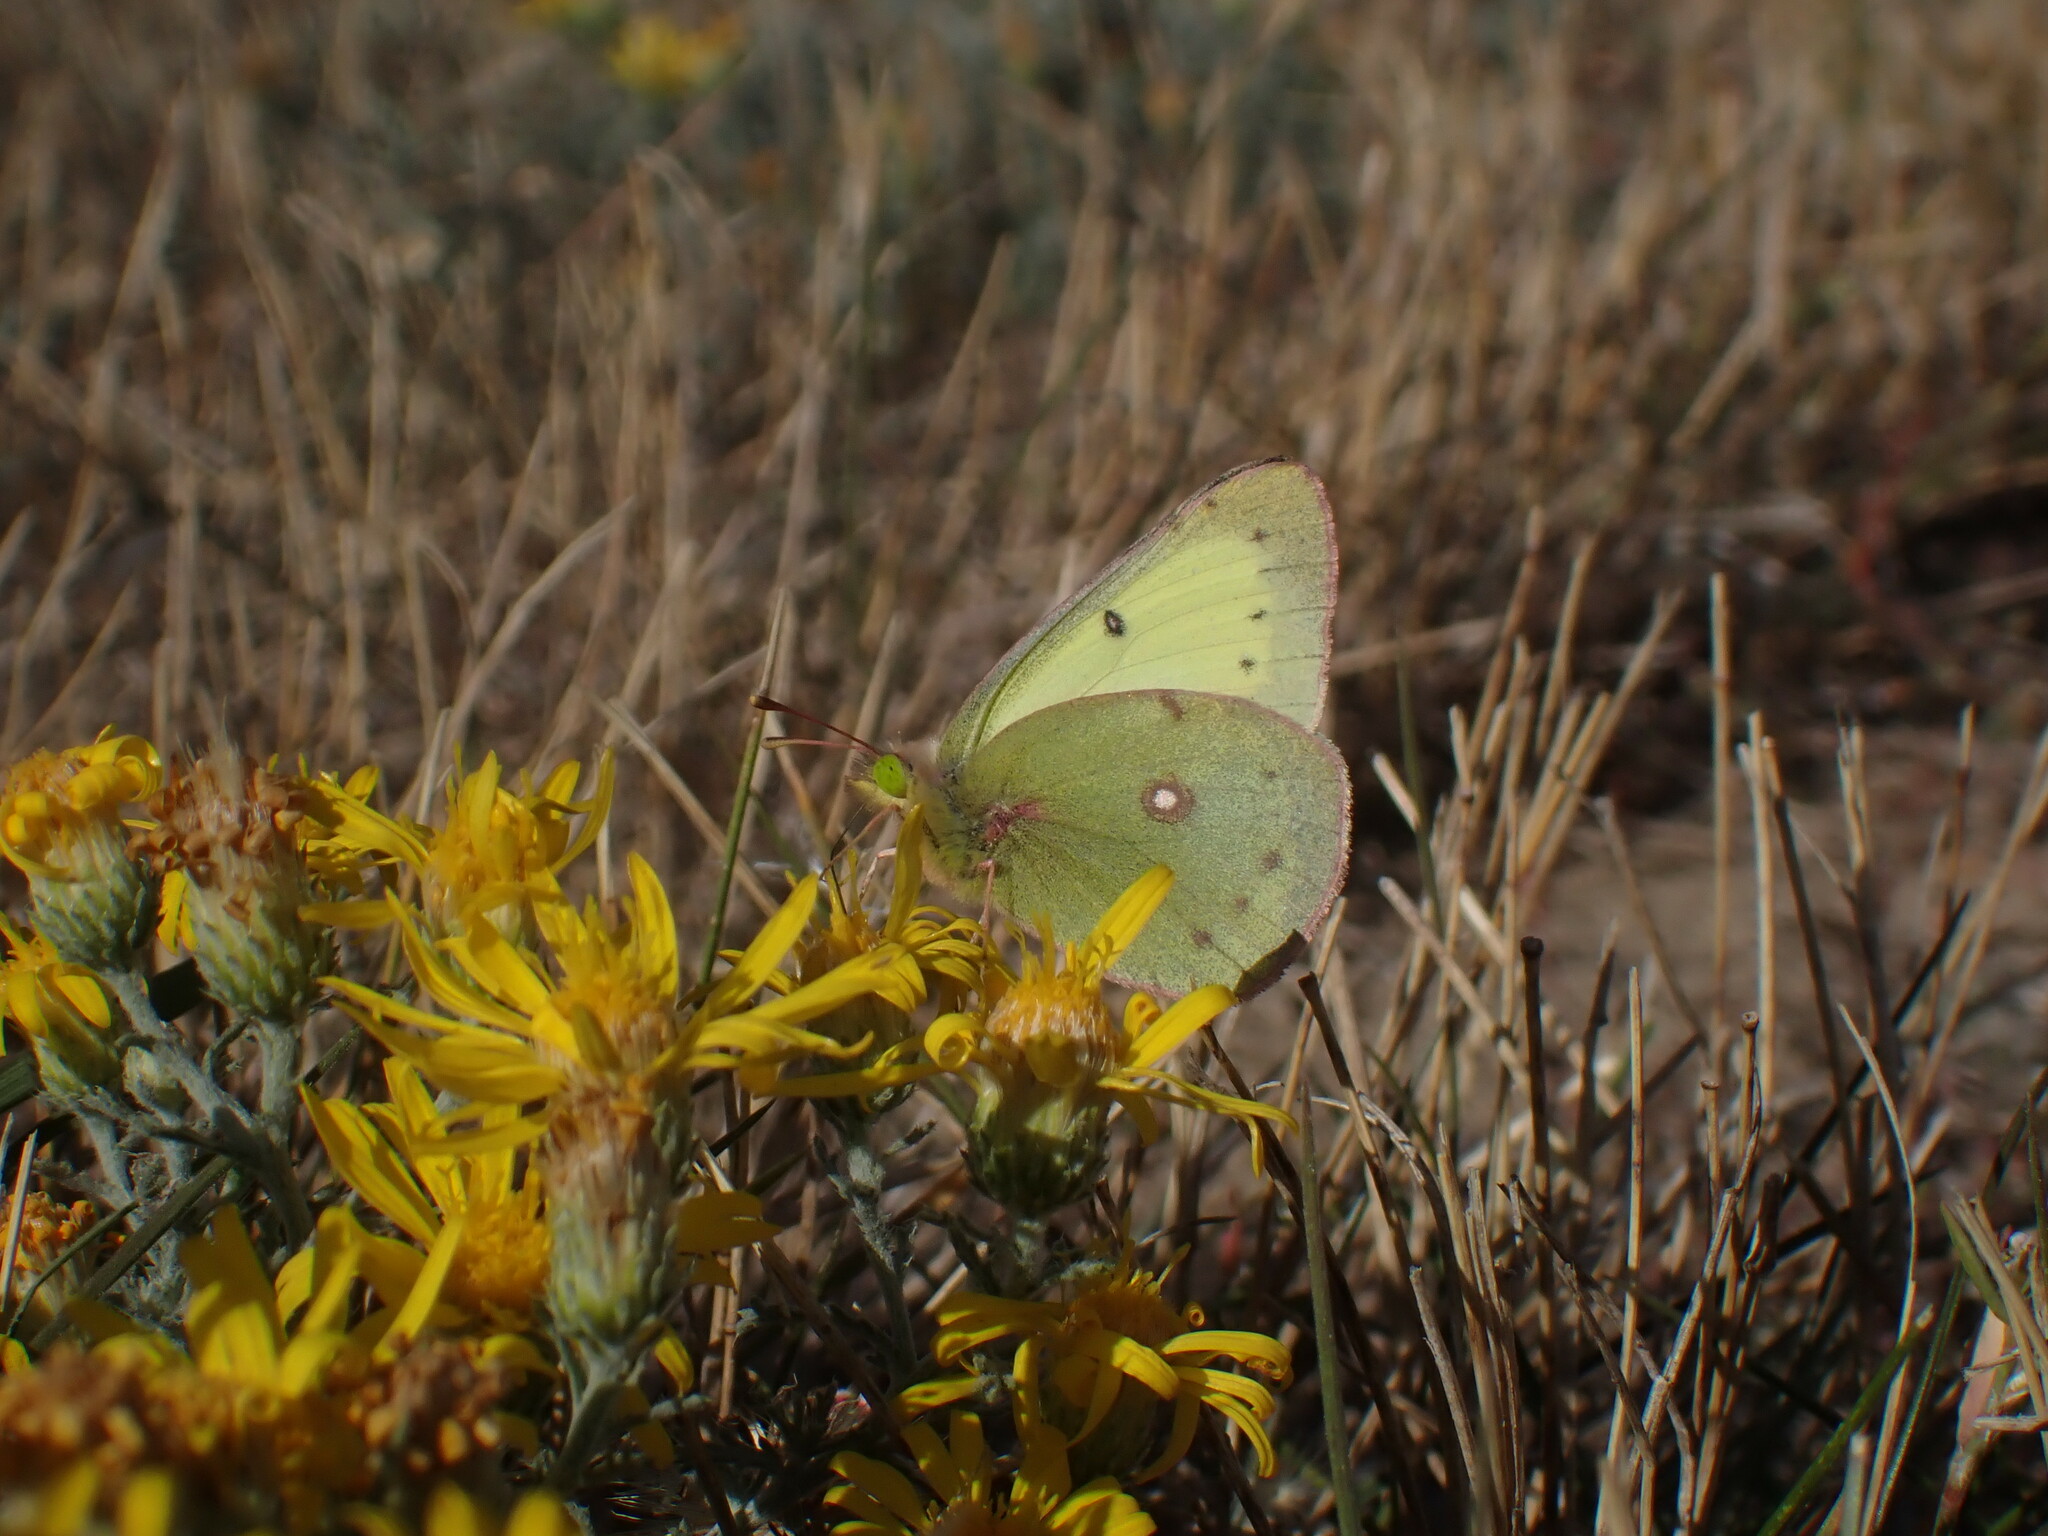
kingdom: Animalia
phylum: Arthropoda
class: Insecta
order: Lepidoptera
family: Pieridae
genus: Colias
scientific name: Colias philodice
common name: Clouded sulphur
